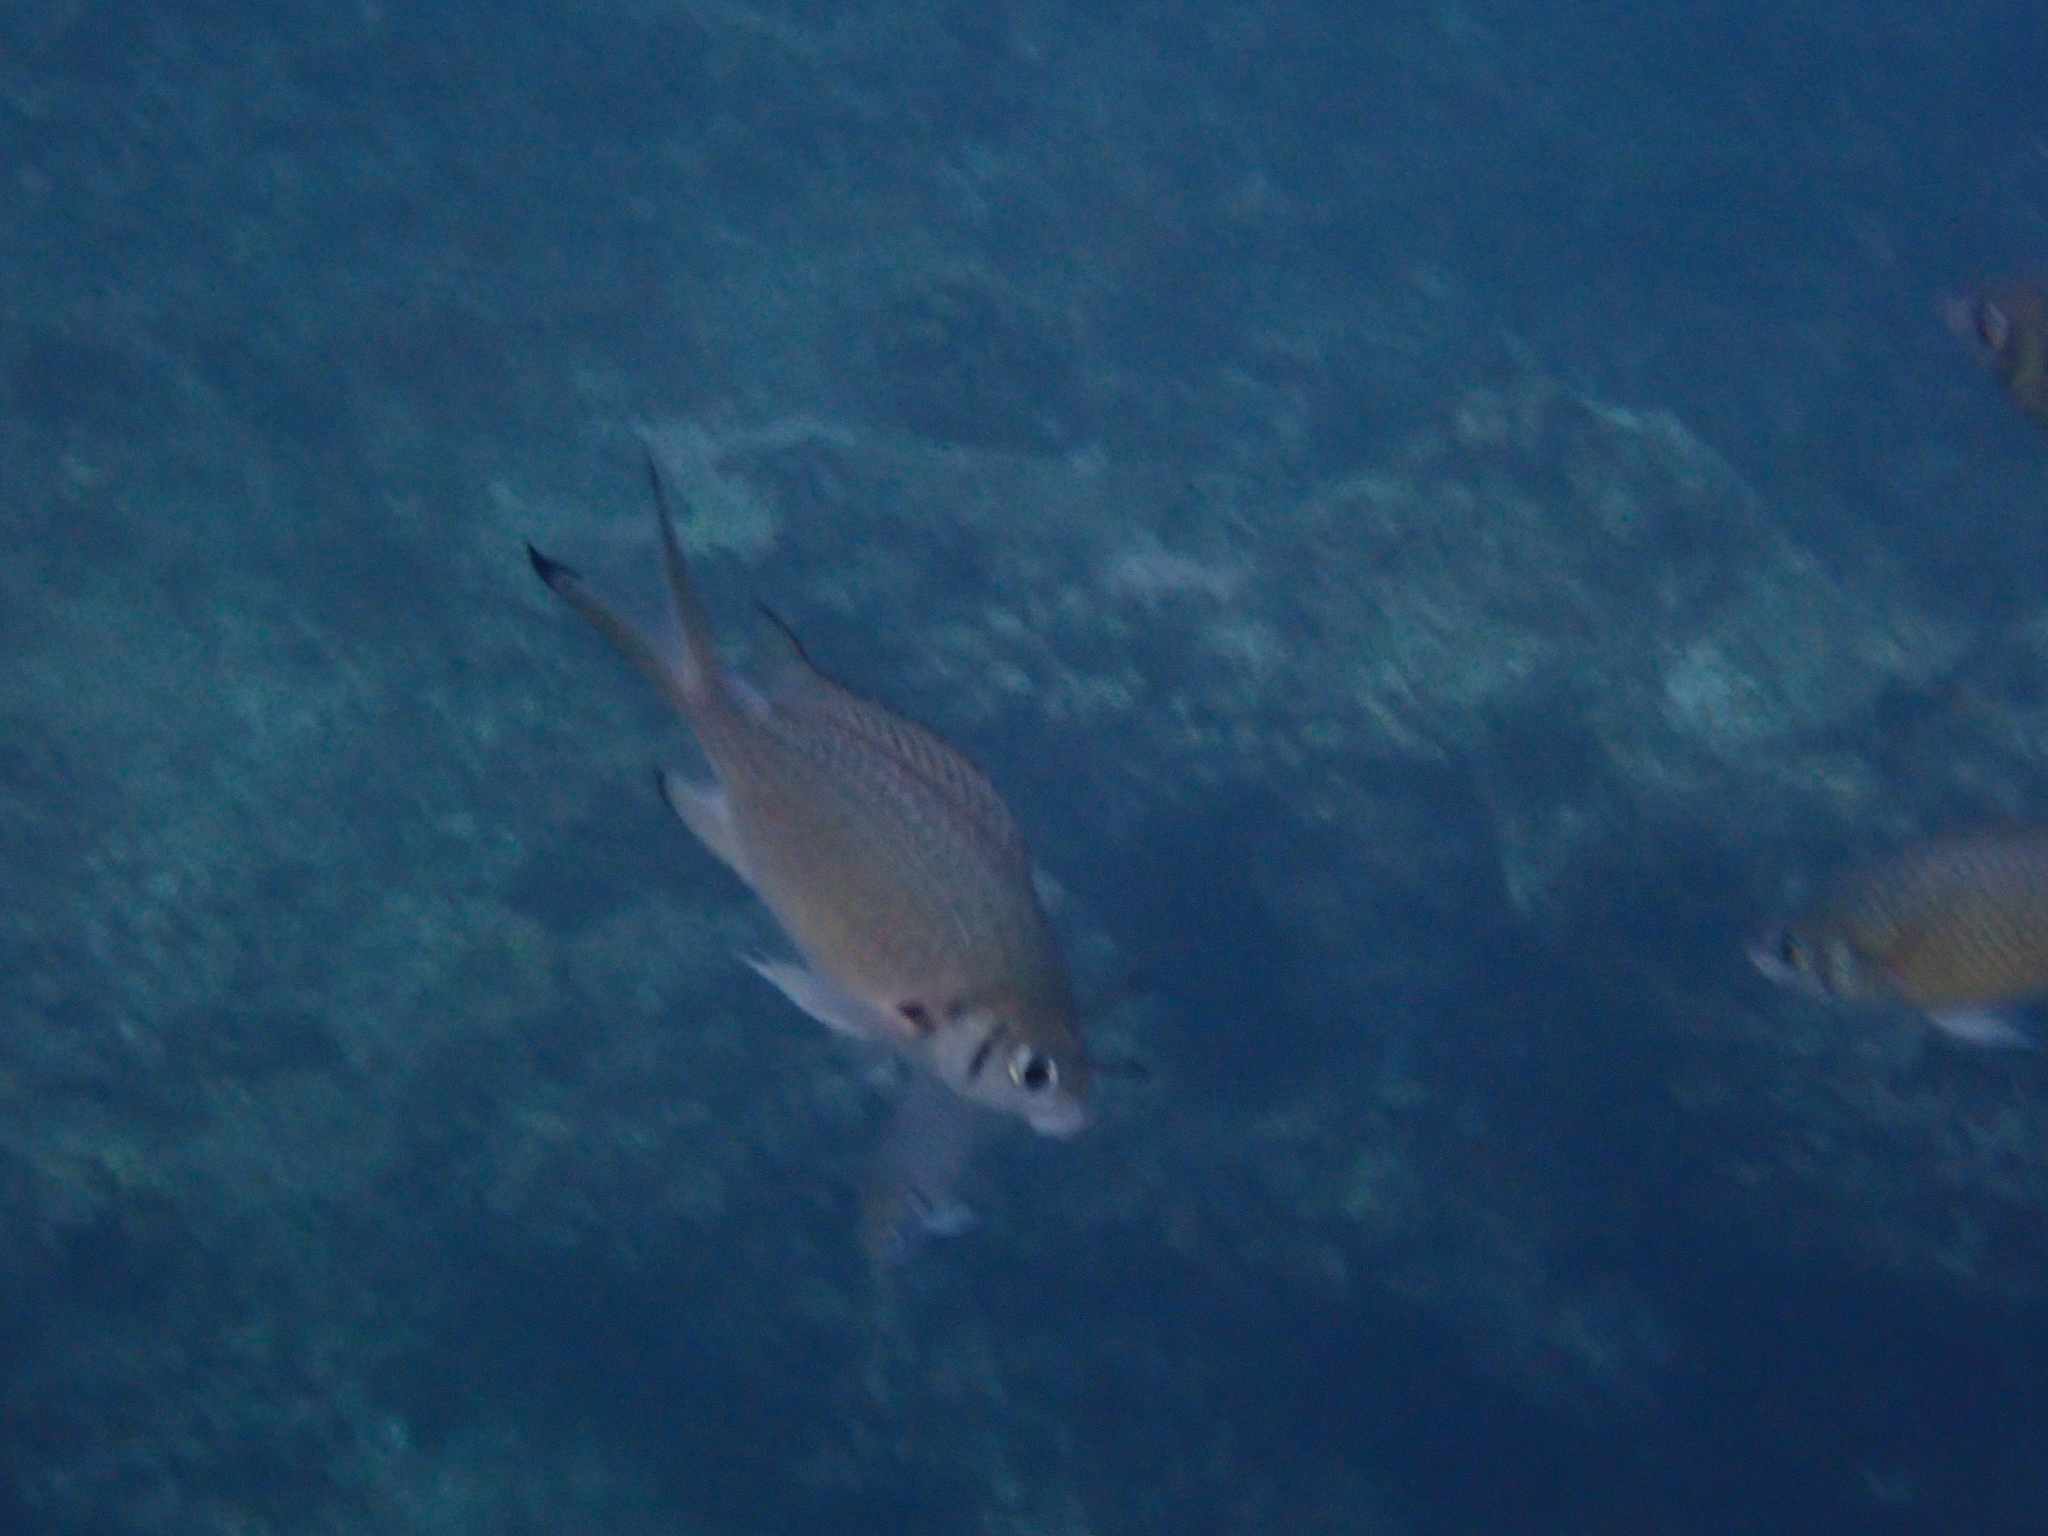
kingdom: Animalia
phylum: Chordata
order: Perciformes
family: Pomacentridae
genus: Chromis
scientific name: Chromis weberi
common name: Weber's chromis
